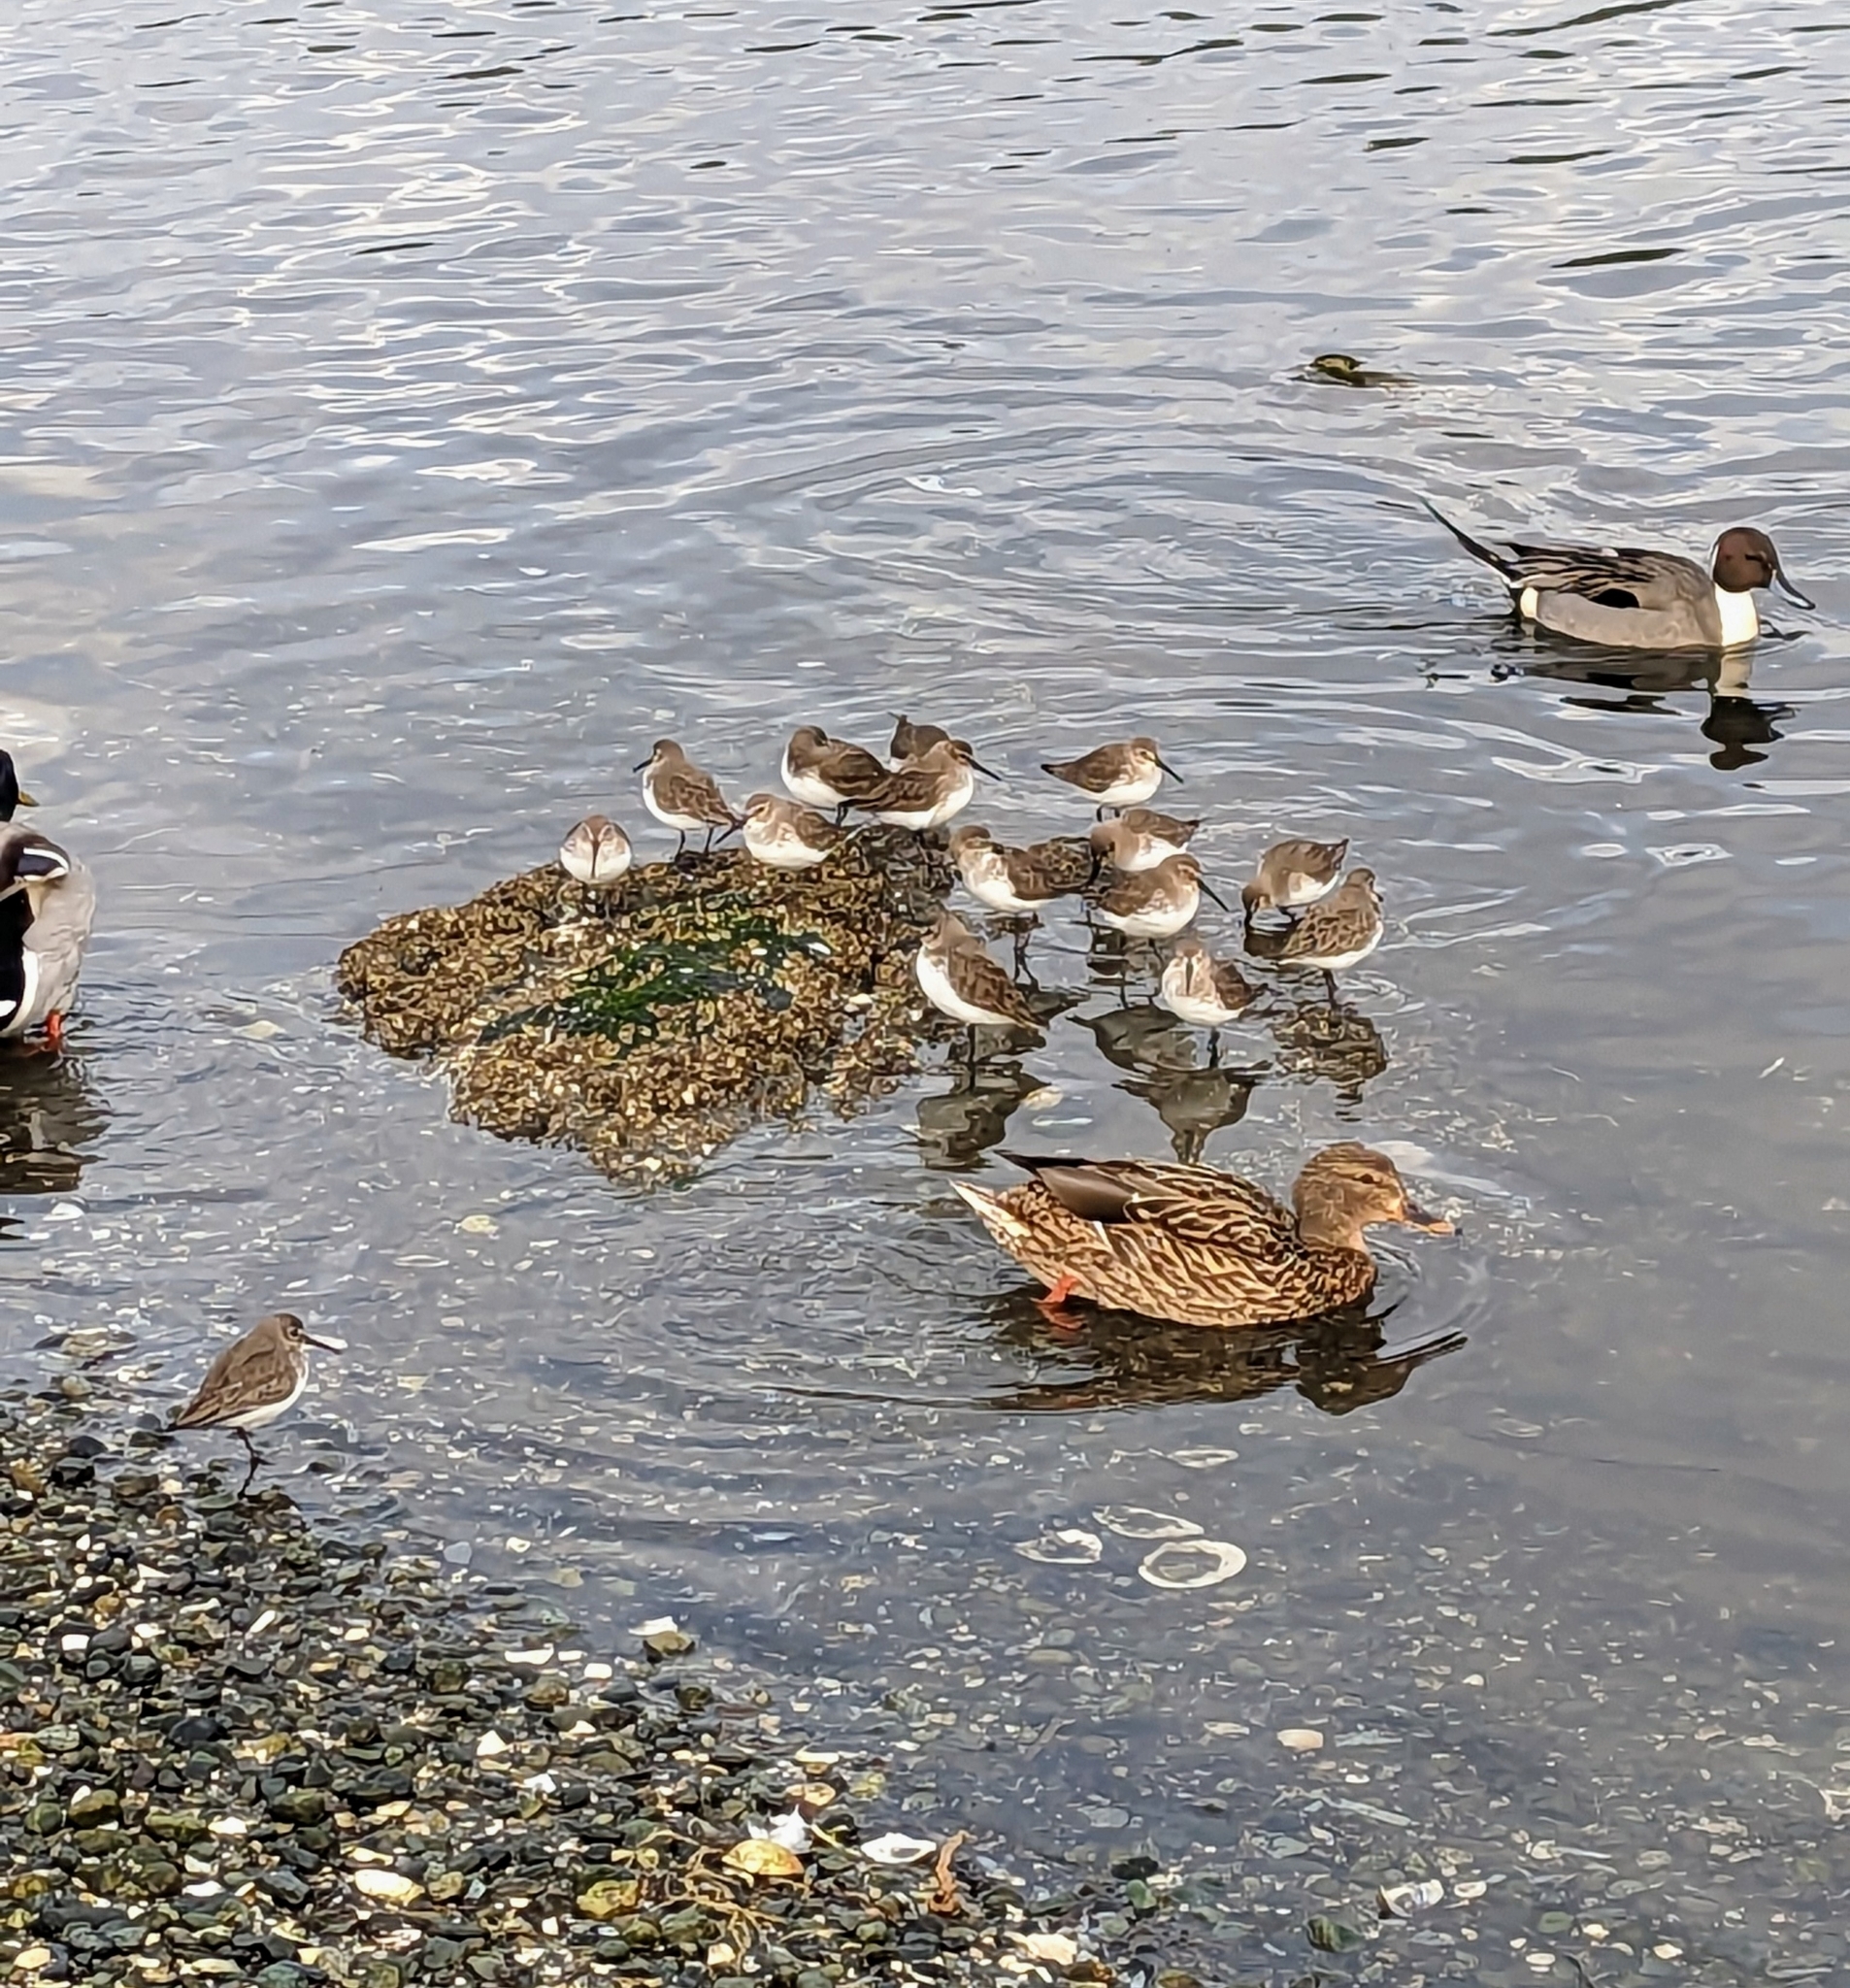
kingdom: Animalia
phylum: Chordata
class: Aves
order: Charadriiformes
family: Scolopacidae
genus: Calidris
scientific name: Calidris alpina
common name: Dunlin
